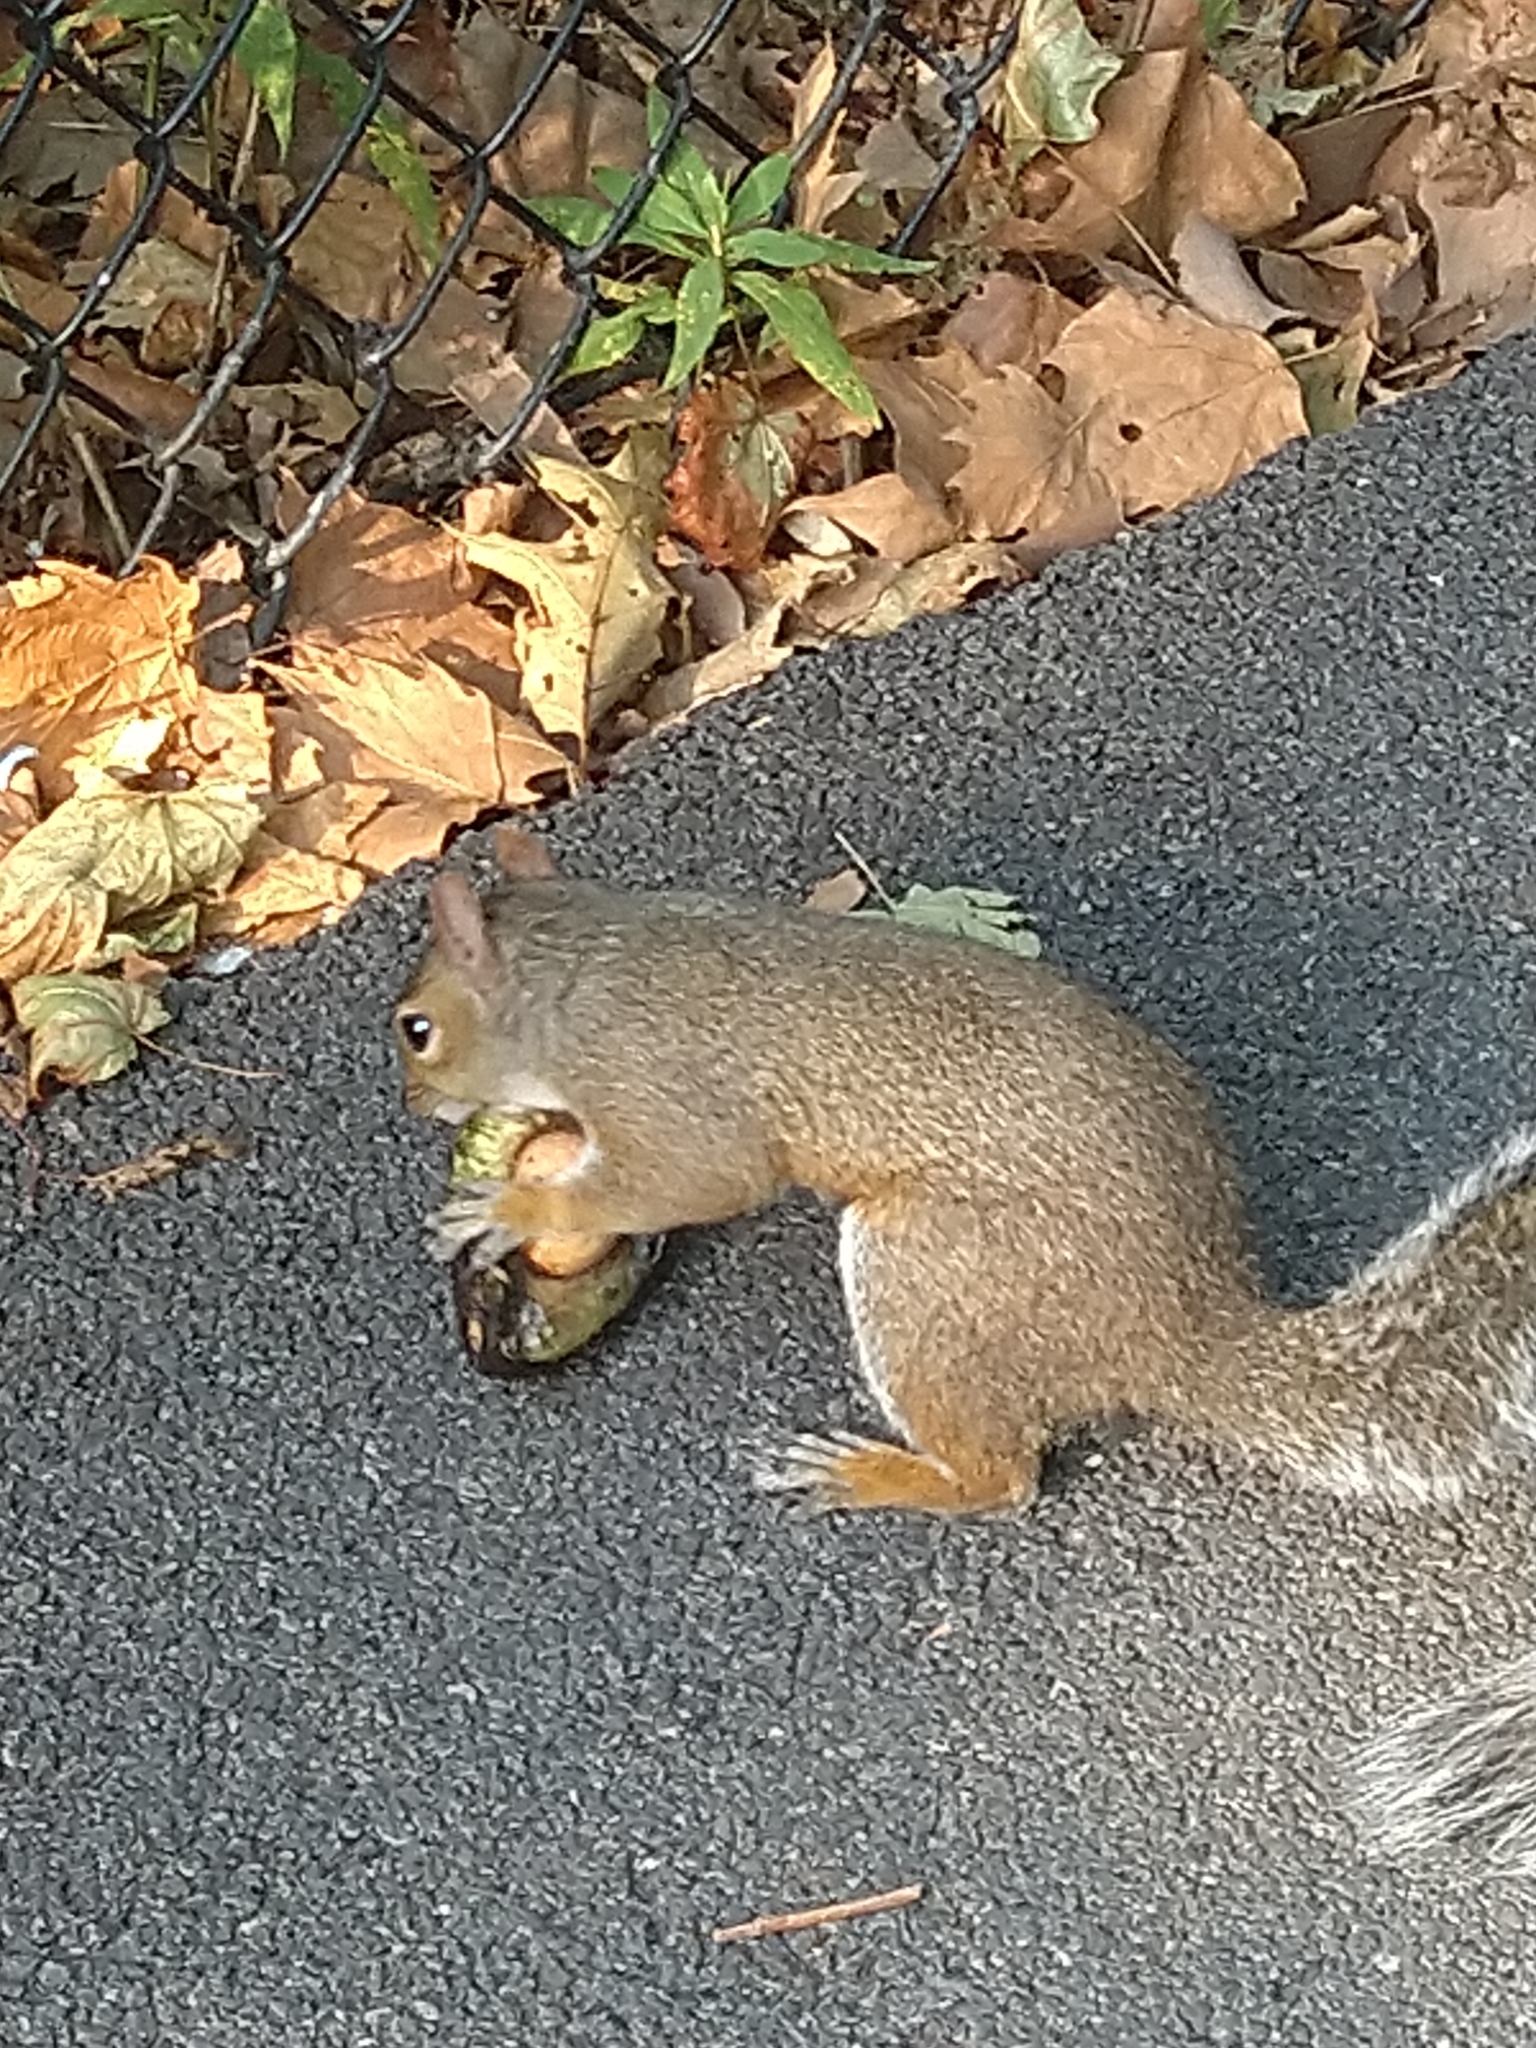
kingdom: Animalia
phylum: Chordata
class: Mammalia
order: Rodentia
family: Sciuridae
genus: Sciurus
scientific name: Sciurus carolinensis
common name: Eastern gray squirrel
